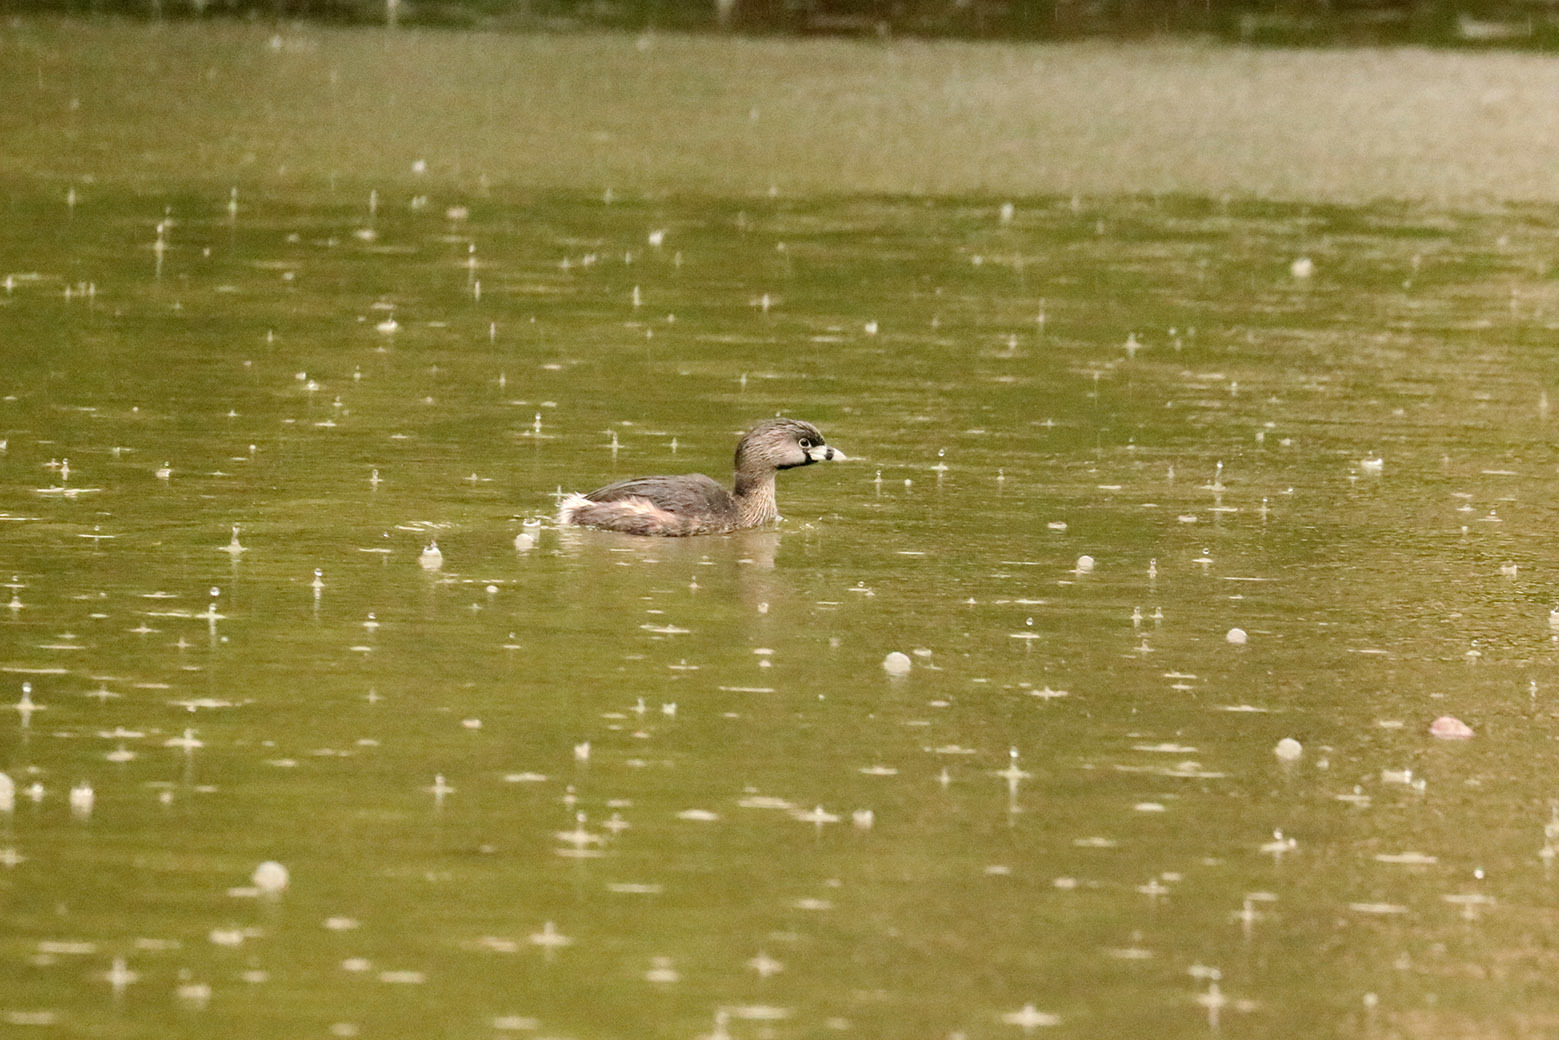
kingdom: Animalia
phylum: Chordata
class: Aves
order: Podicipediformes
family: Podicipedidae
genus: Podilymbus
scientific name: Podilymbus podiceps
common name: Pied-billed grebe
